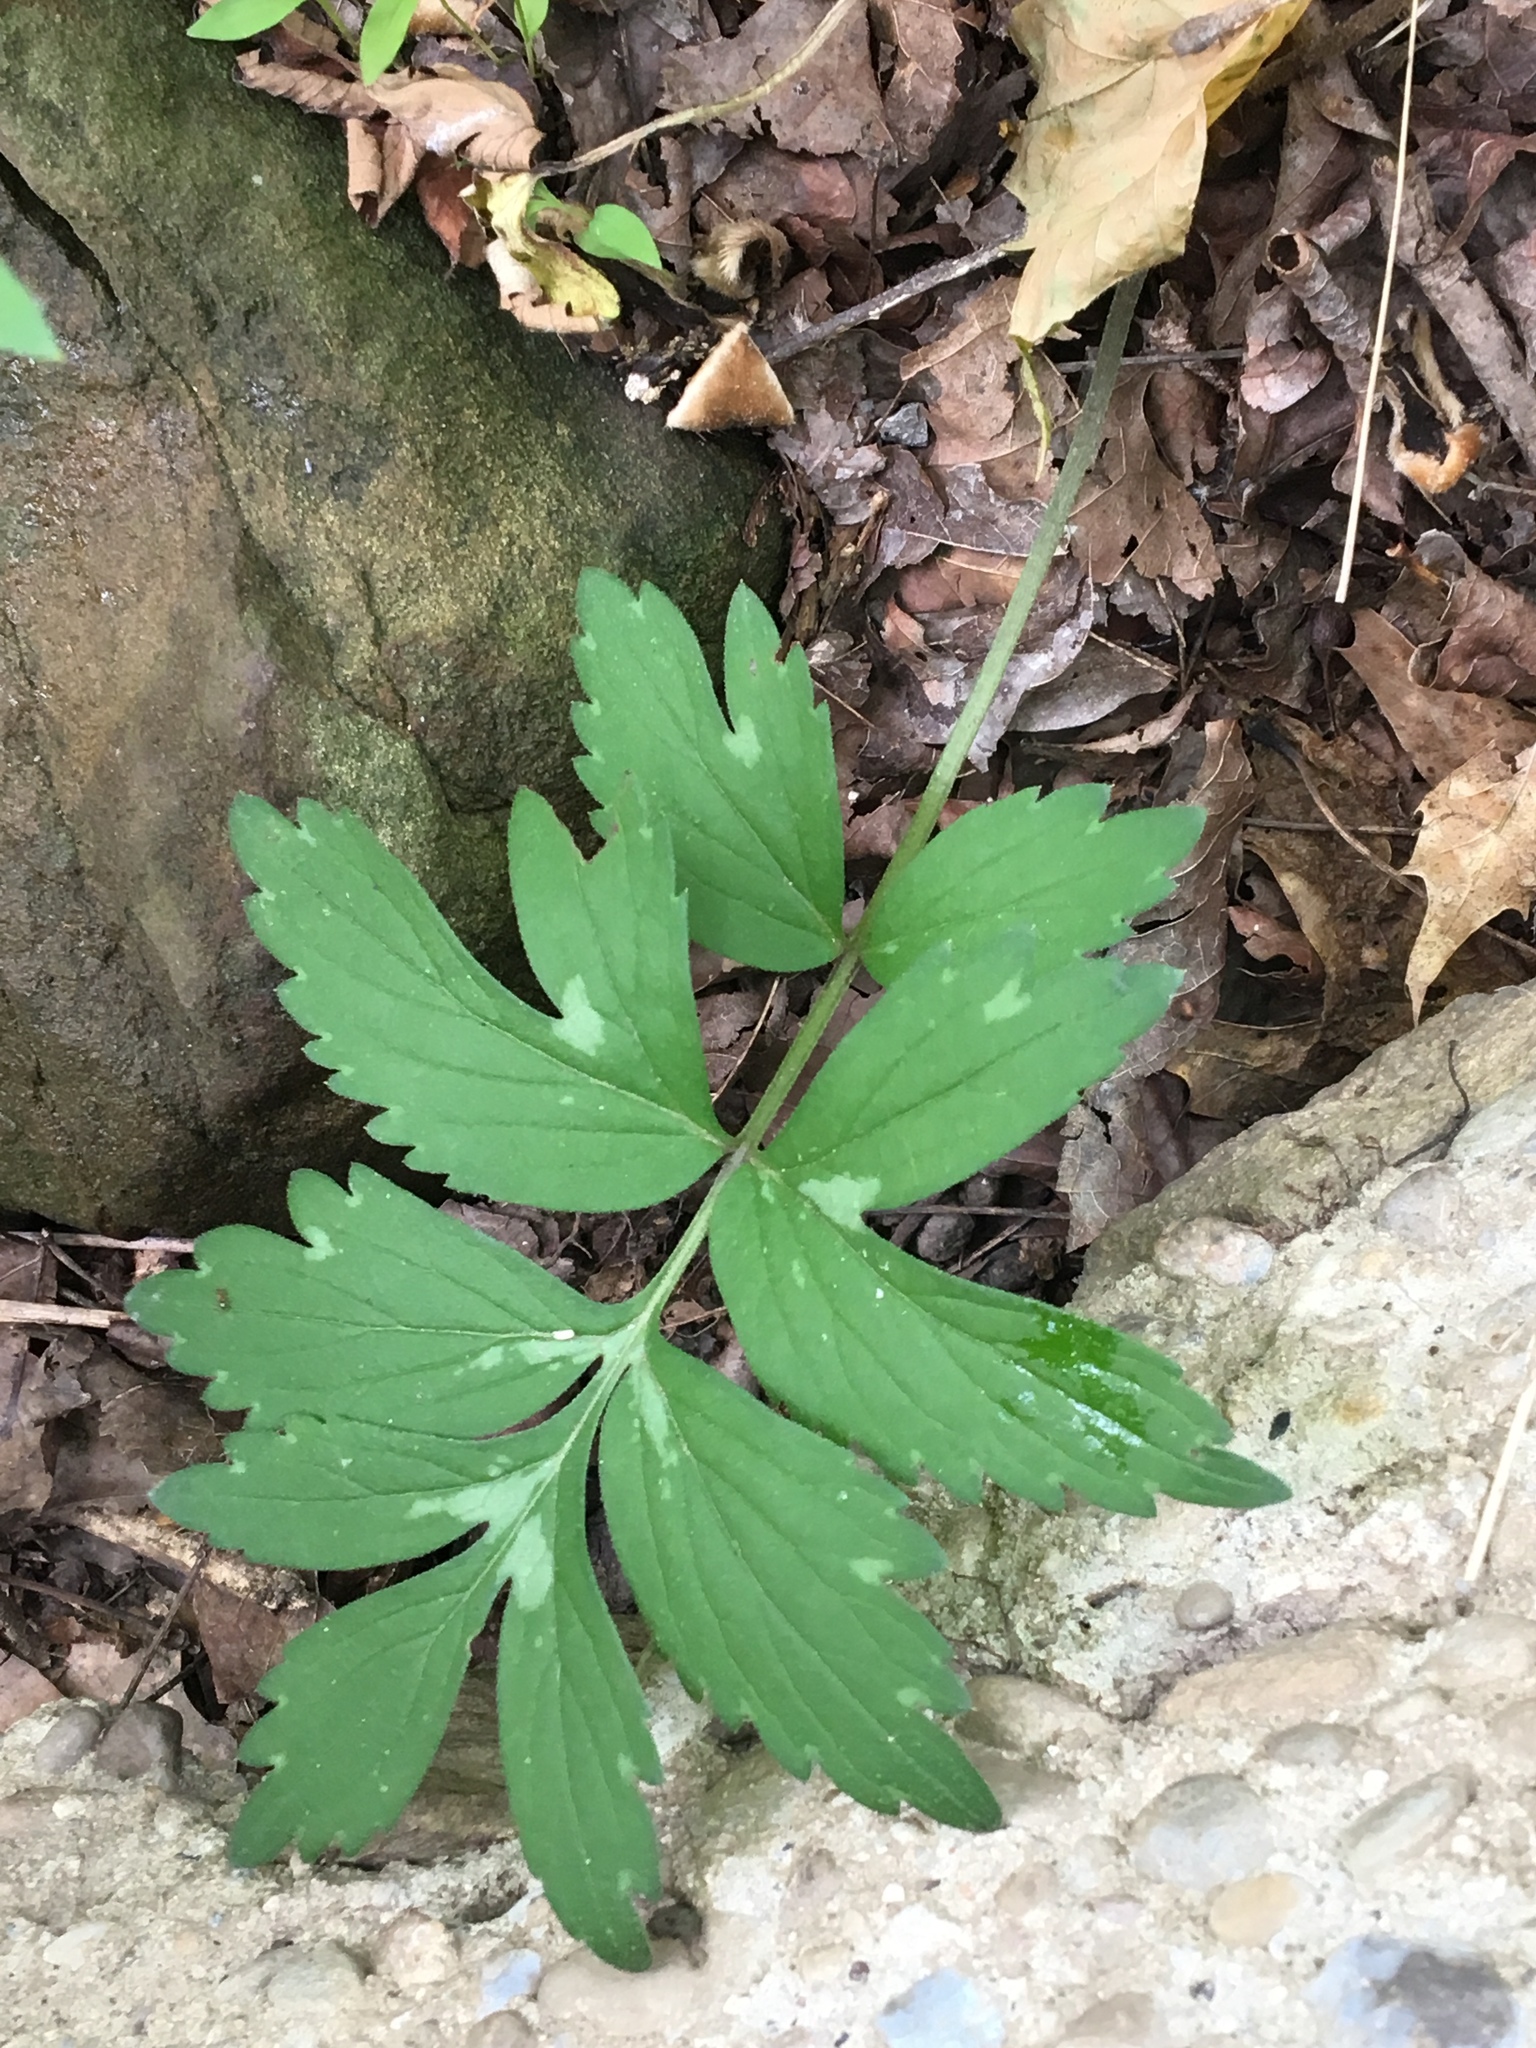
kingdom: Plantae
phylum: Tracheophyta
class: Magnoliopsida
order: Boraginales
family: Hydrophyllaceae
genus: Hydrophyllum
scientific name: Hydrophyllum virginianum
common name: Virginia waterleaf
